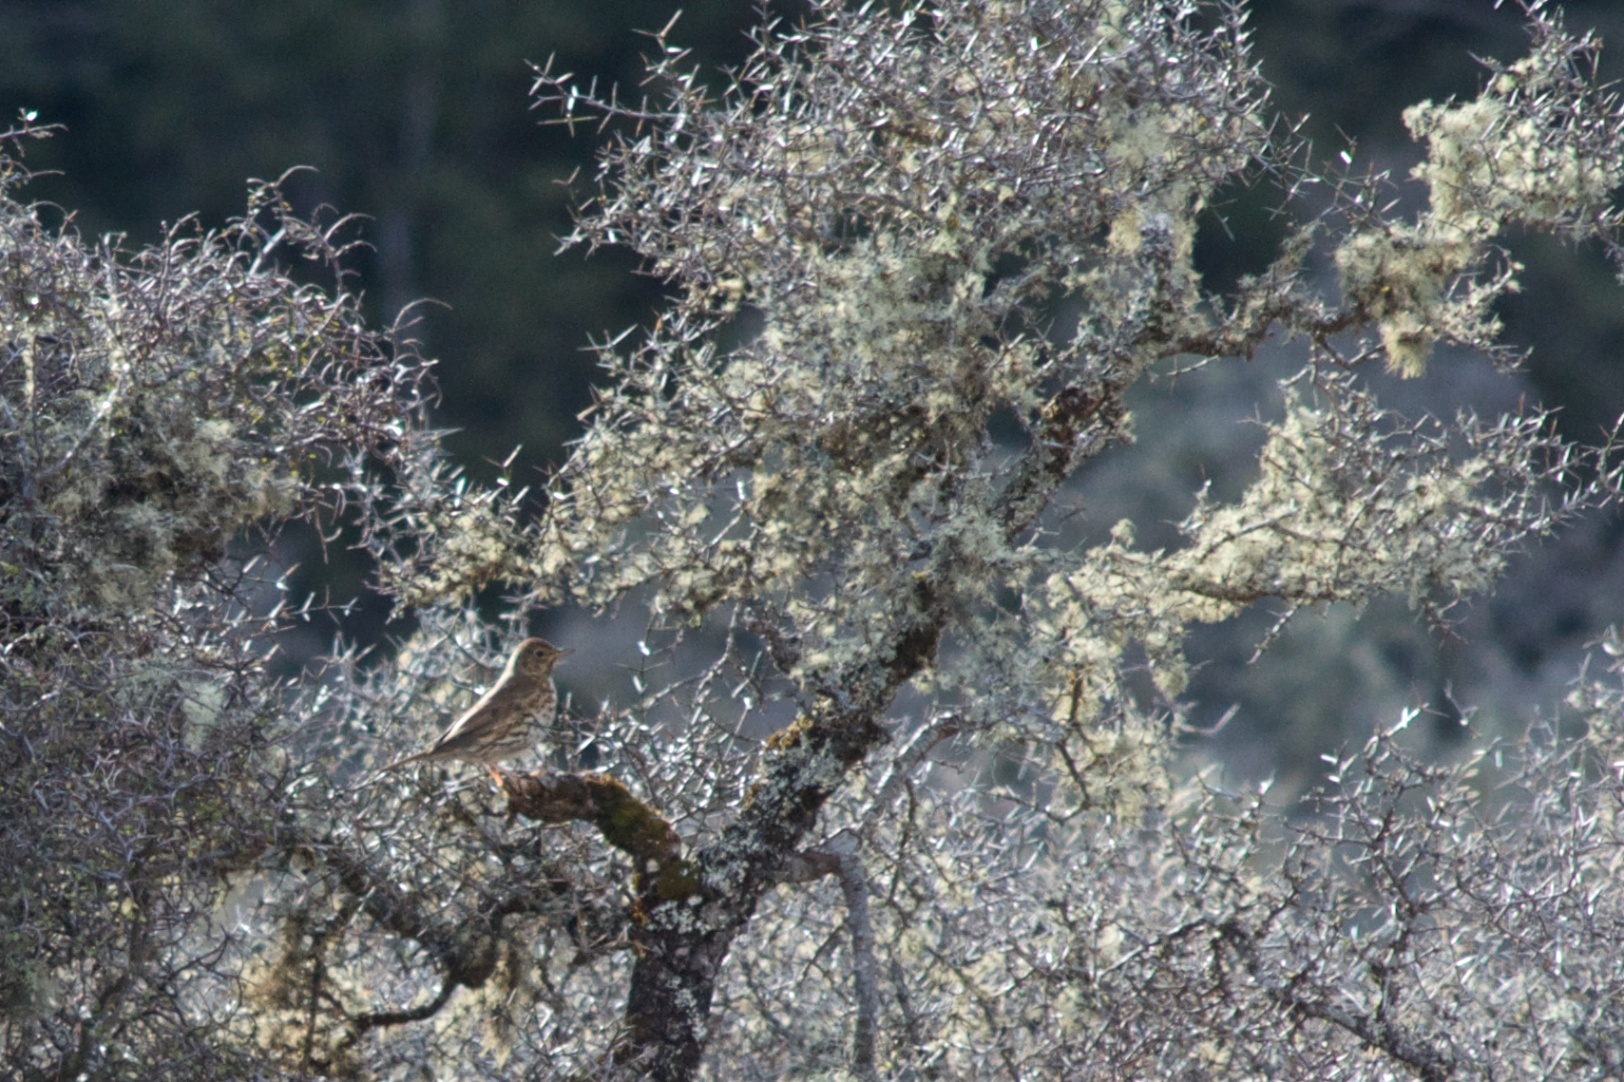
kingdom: Animalia
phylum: Chordata
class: Aves
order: Passeriformes
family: Turdidae
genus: Turdus
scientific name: Turdus philomelos
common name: Song thrush
